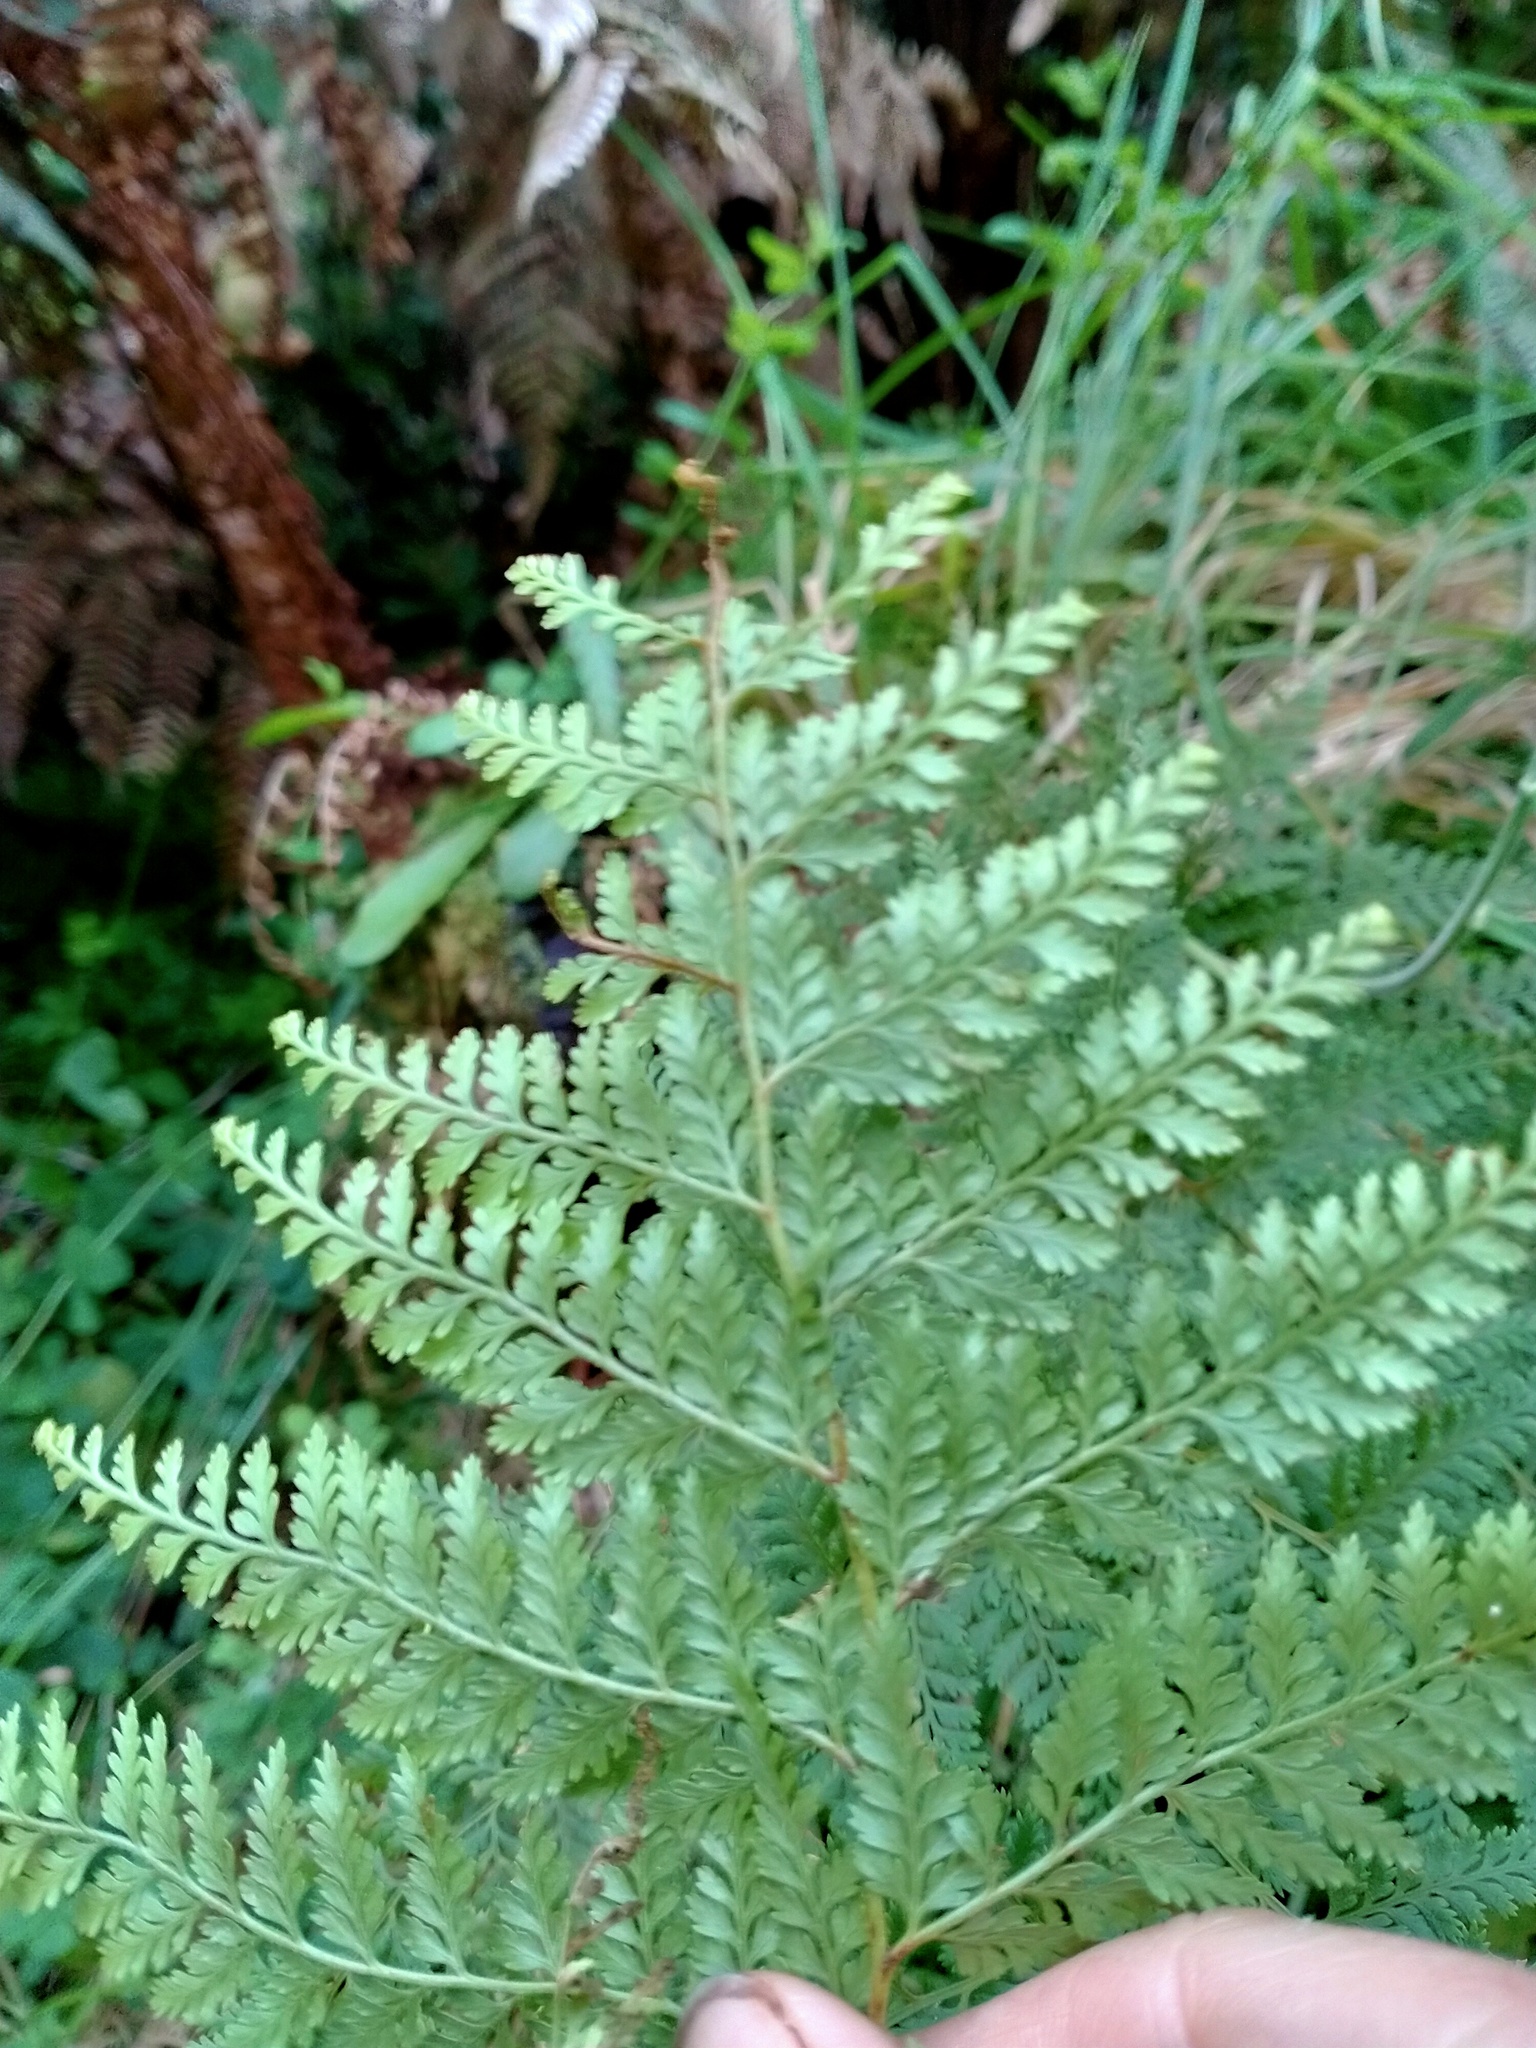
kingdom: Plantae
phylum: Tracheophyta
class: Polypodiopsida
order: Polypodiales
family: Dennstaedtiaceae
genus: Paesia
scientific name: Paesia scaberula
